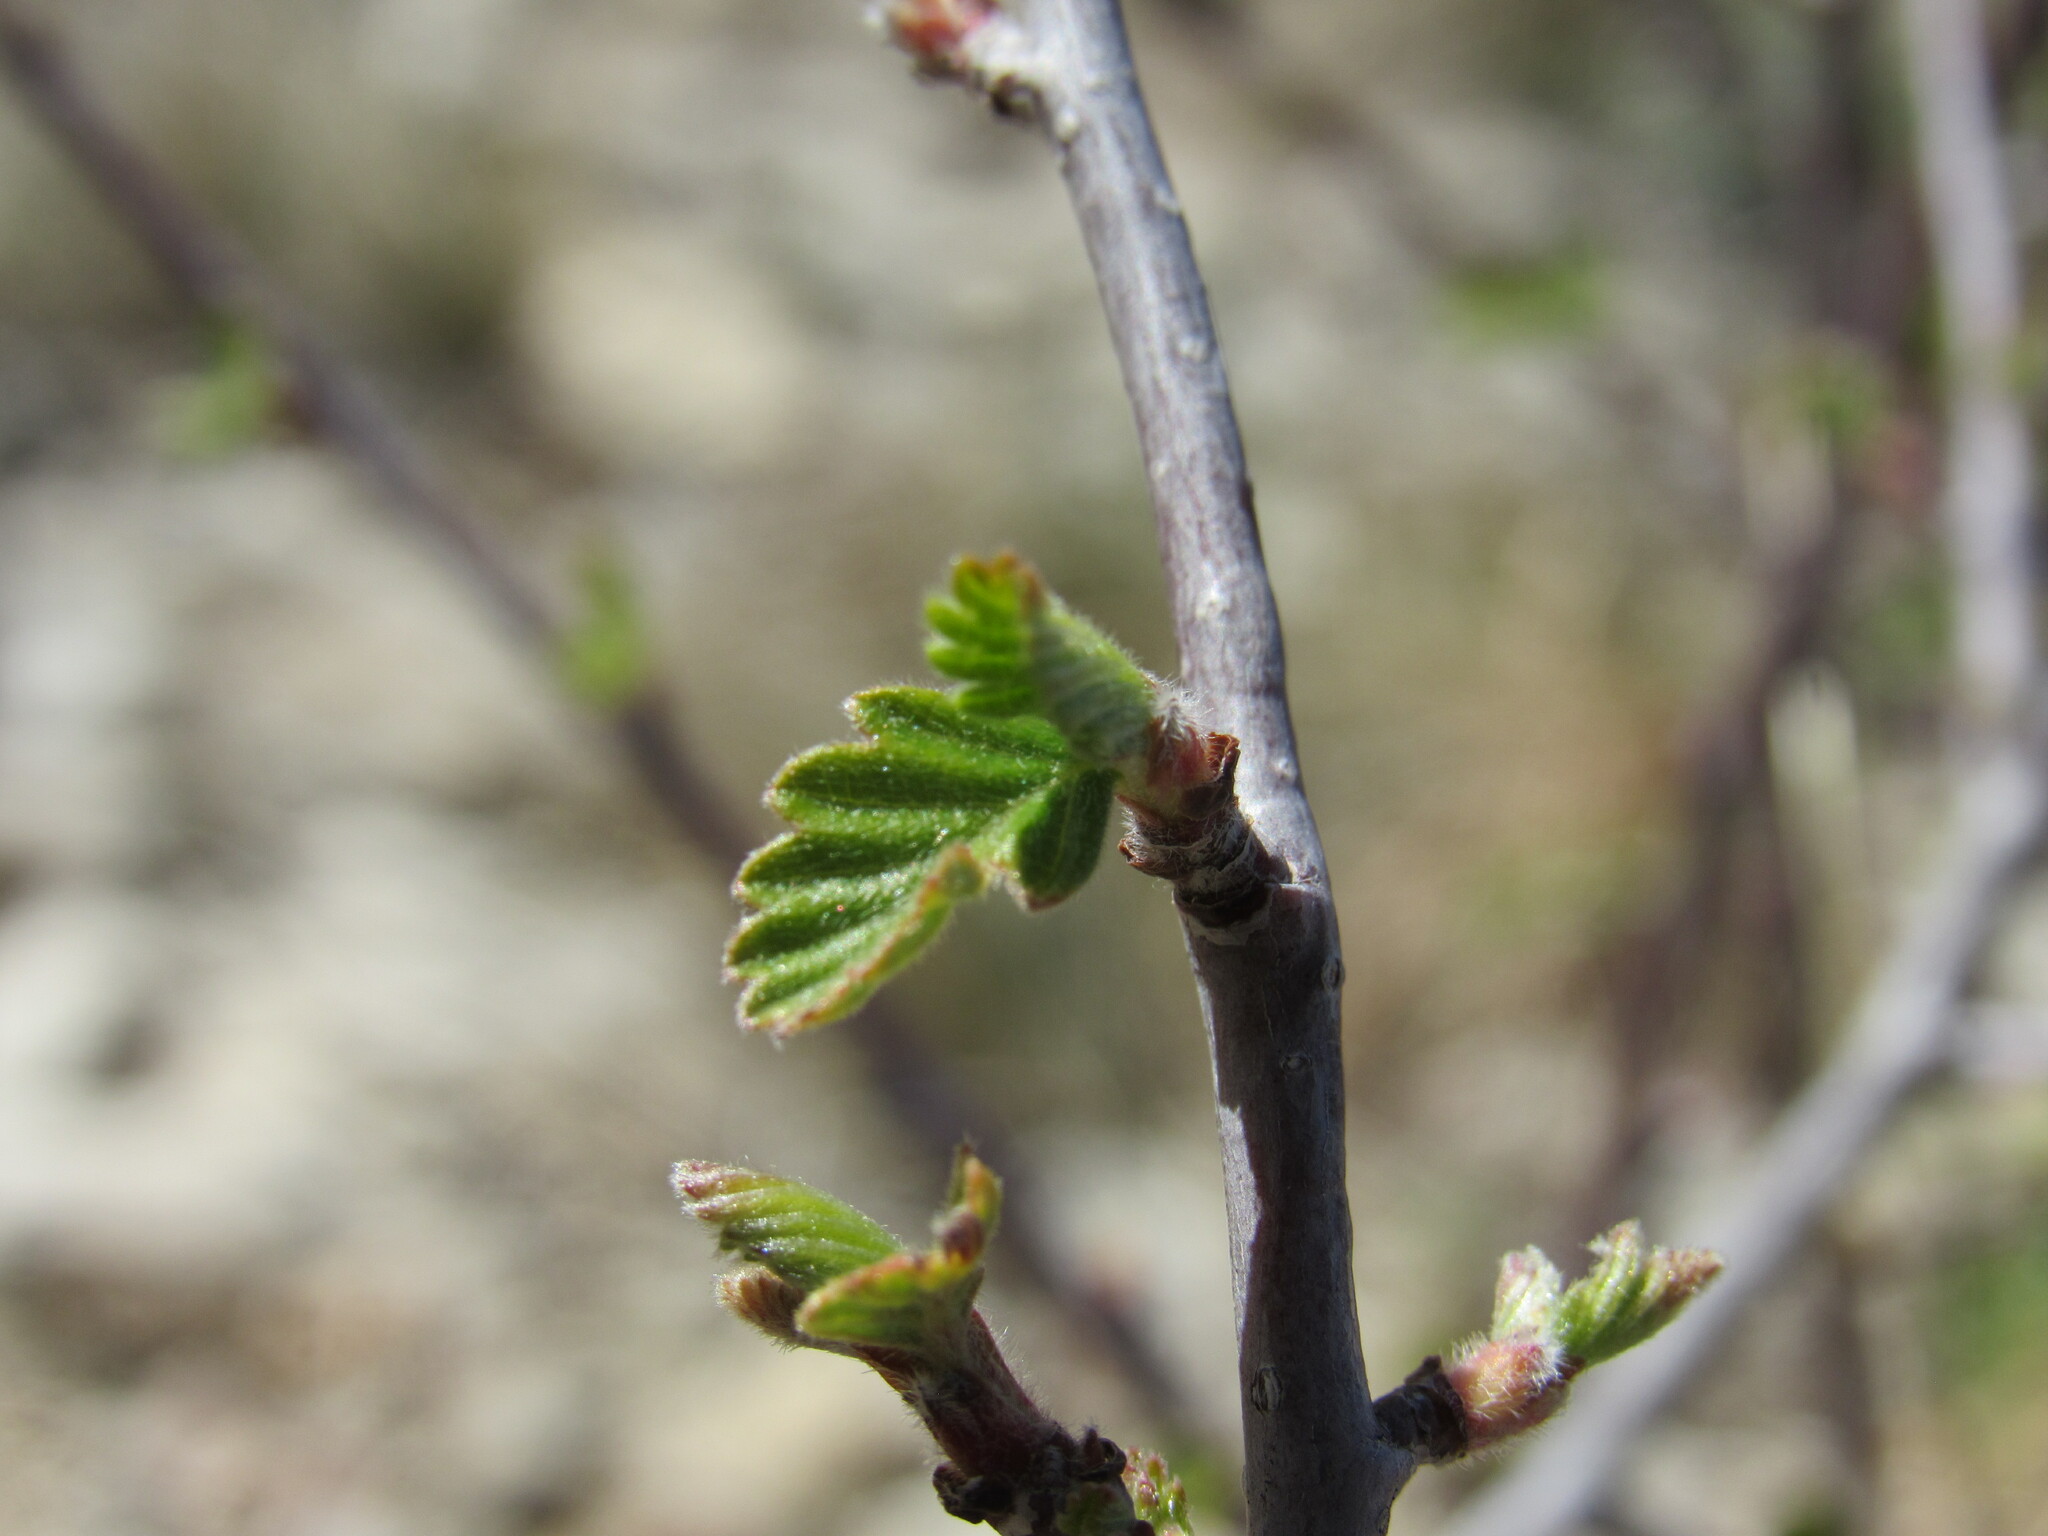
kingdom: Plantae
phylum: Tracheophyta
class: Magnoliopsida
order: Rosales
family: Rosaceae
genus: Cercocarpus
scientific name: Cercocarpus montanus
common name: Alder-leaf cercocarpus
